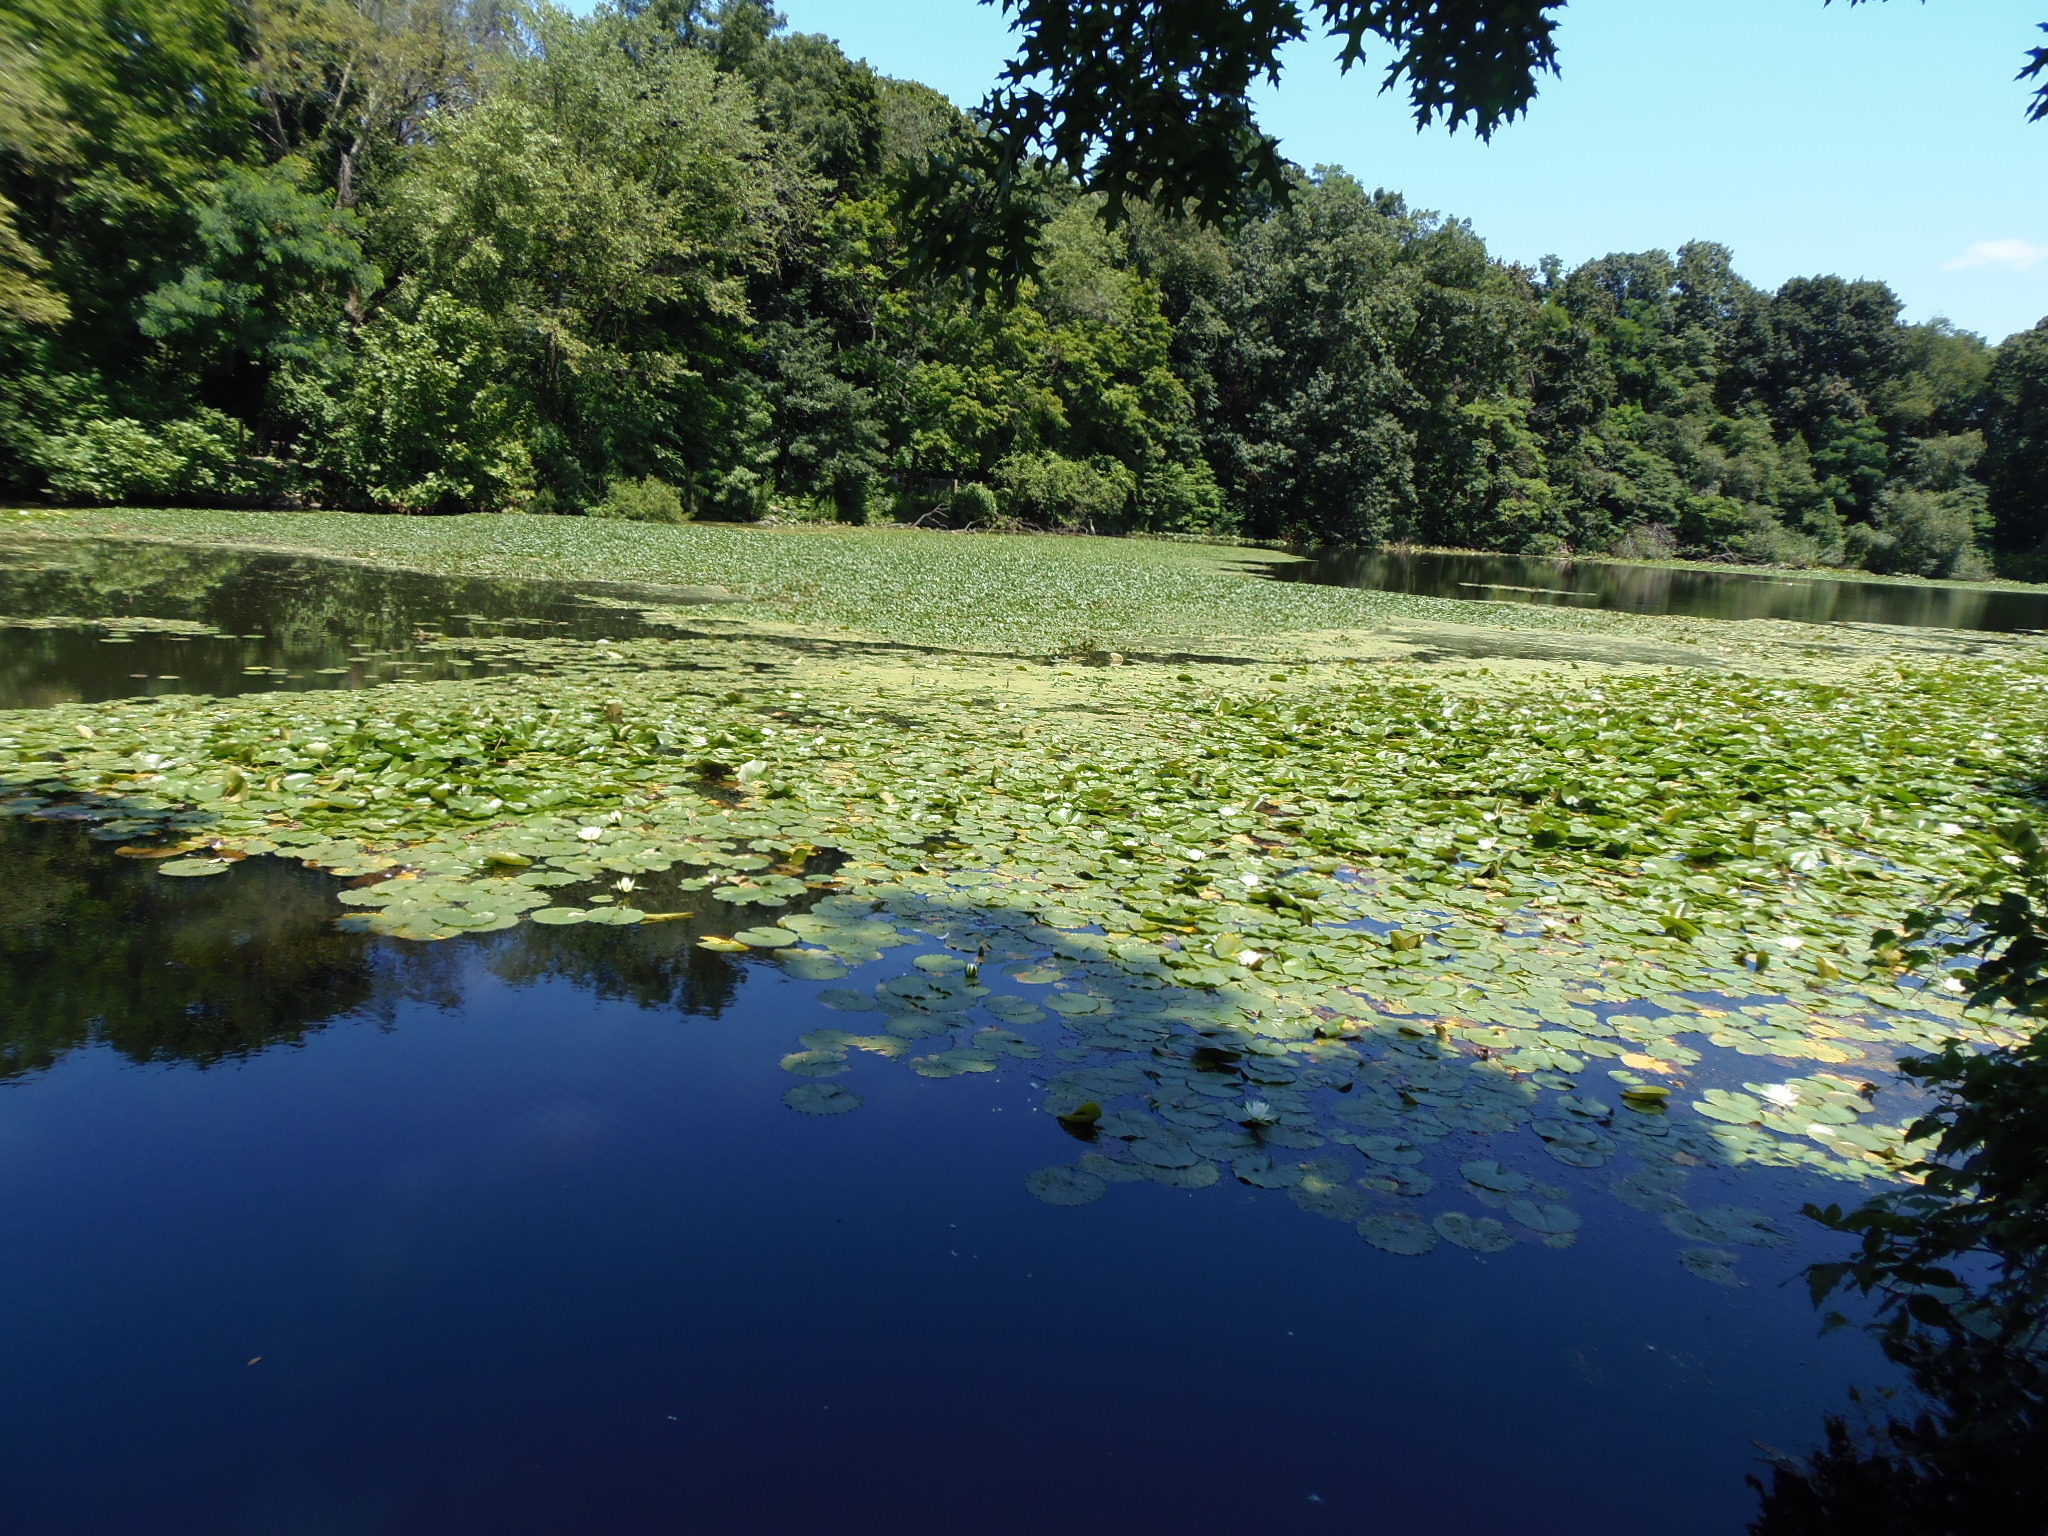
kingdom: Plantae
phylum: Tracheophyta
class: Magnoliopsida
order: Myrtales
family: Lythraceae
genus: Trapa
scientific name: Trapa natans
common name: Water chestnut
